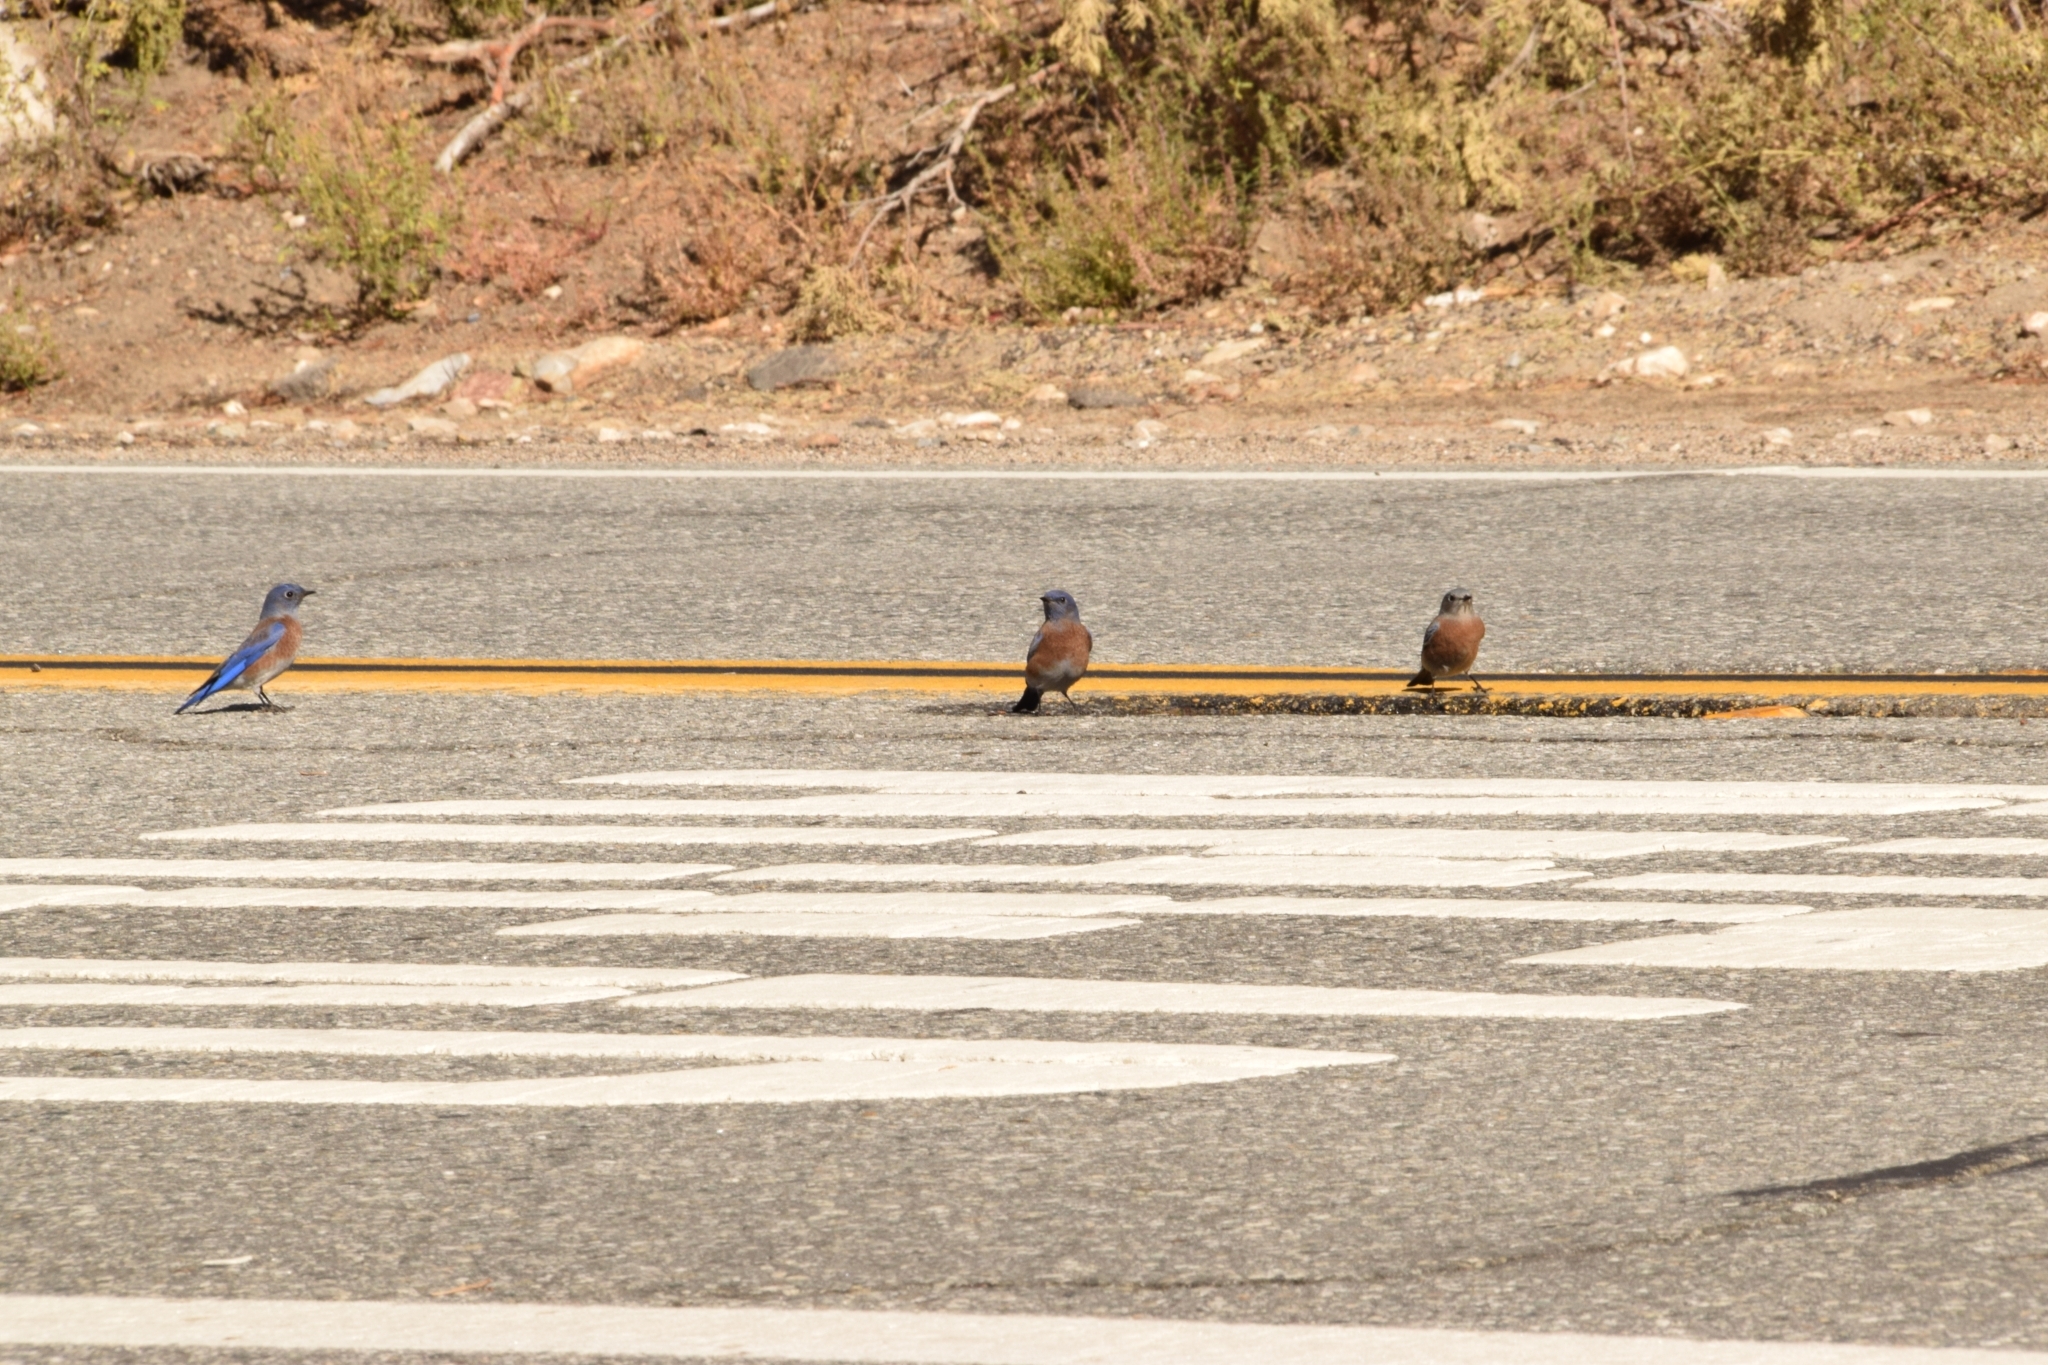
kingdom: Animalia
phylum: Chordata
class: Aves
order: Passeriformes
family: Turdidae
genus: Sialia
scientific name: Sialia mexicana
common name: Western bluebird
